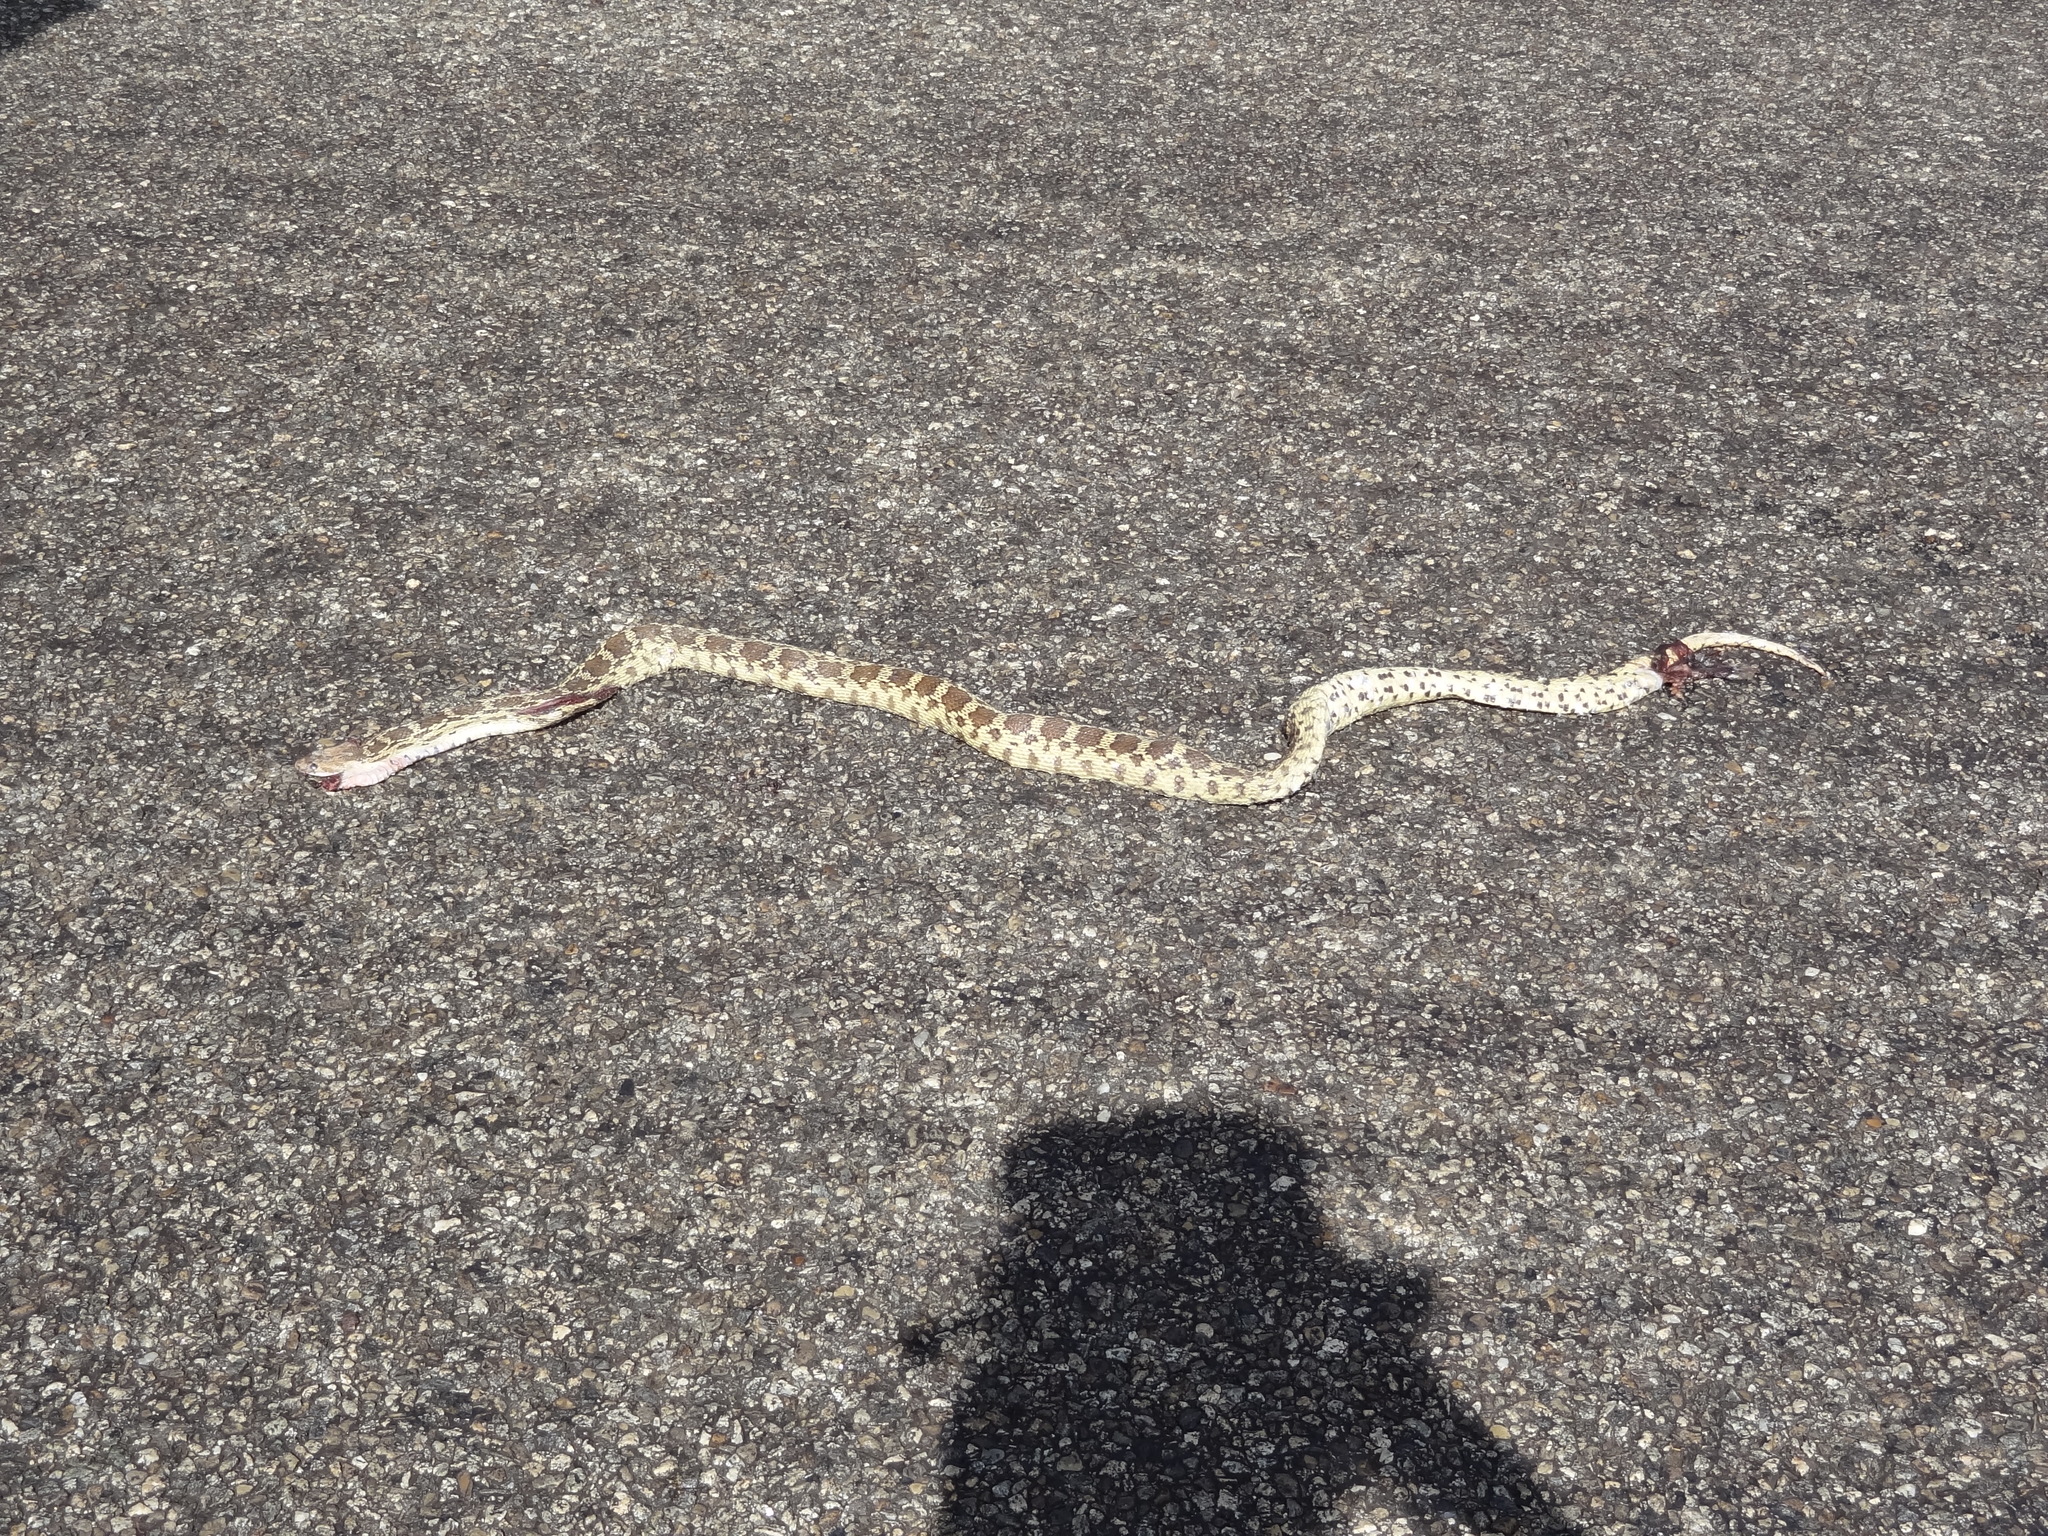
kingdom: Animalia
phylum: Chordata
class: Squamata
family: Colubridae
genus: Pituophis
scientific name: Pituophis catenifer
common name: Gopher snake
